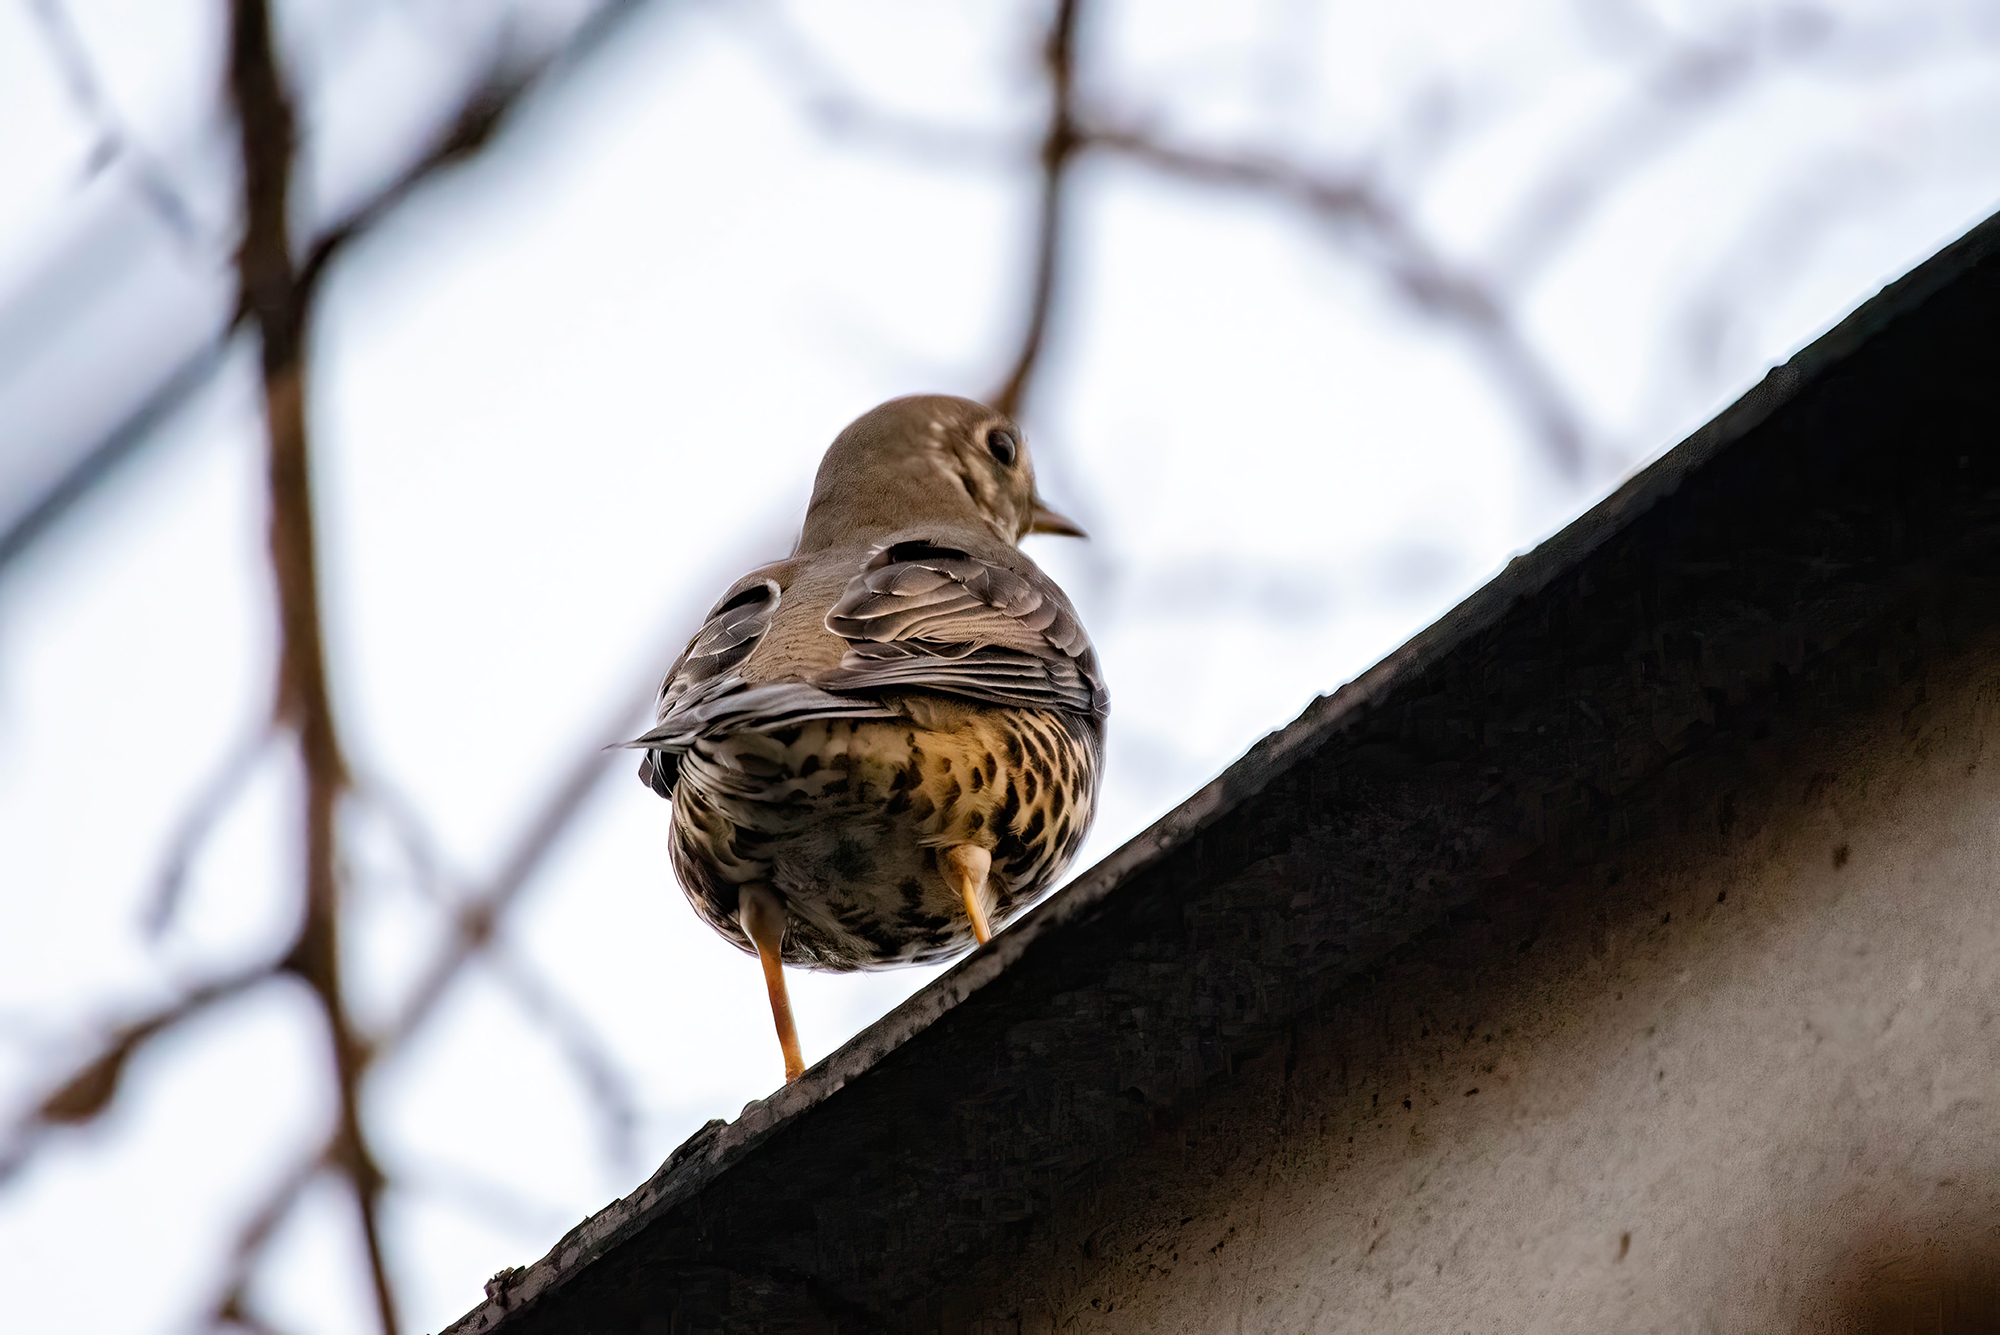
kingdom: Animalia
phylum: Chordata
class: Aves
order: Passeriformes
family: Turdidae
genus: Turdus
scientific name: Turdus viscivorus
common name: Mistle thrush
